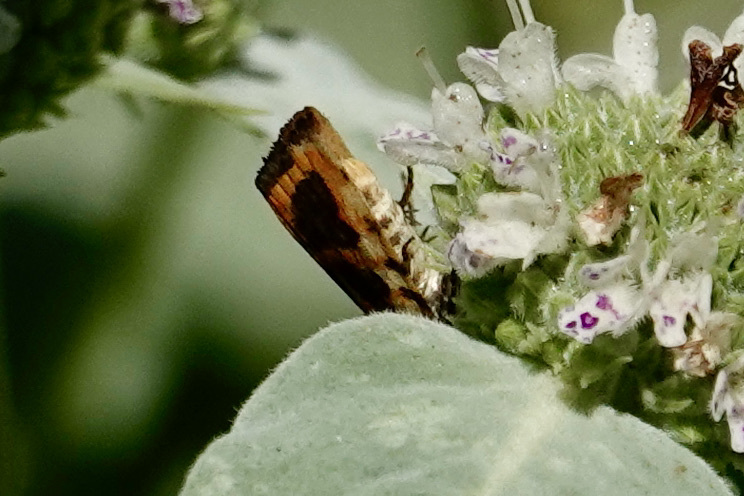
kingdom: Animalia
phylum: Arthropoda
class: Insecta
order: Lepidoptera
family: Noctuidae
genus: Acontia
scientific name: Acontia leo
